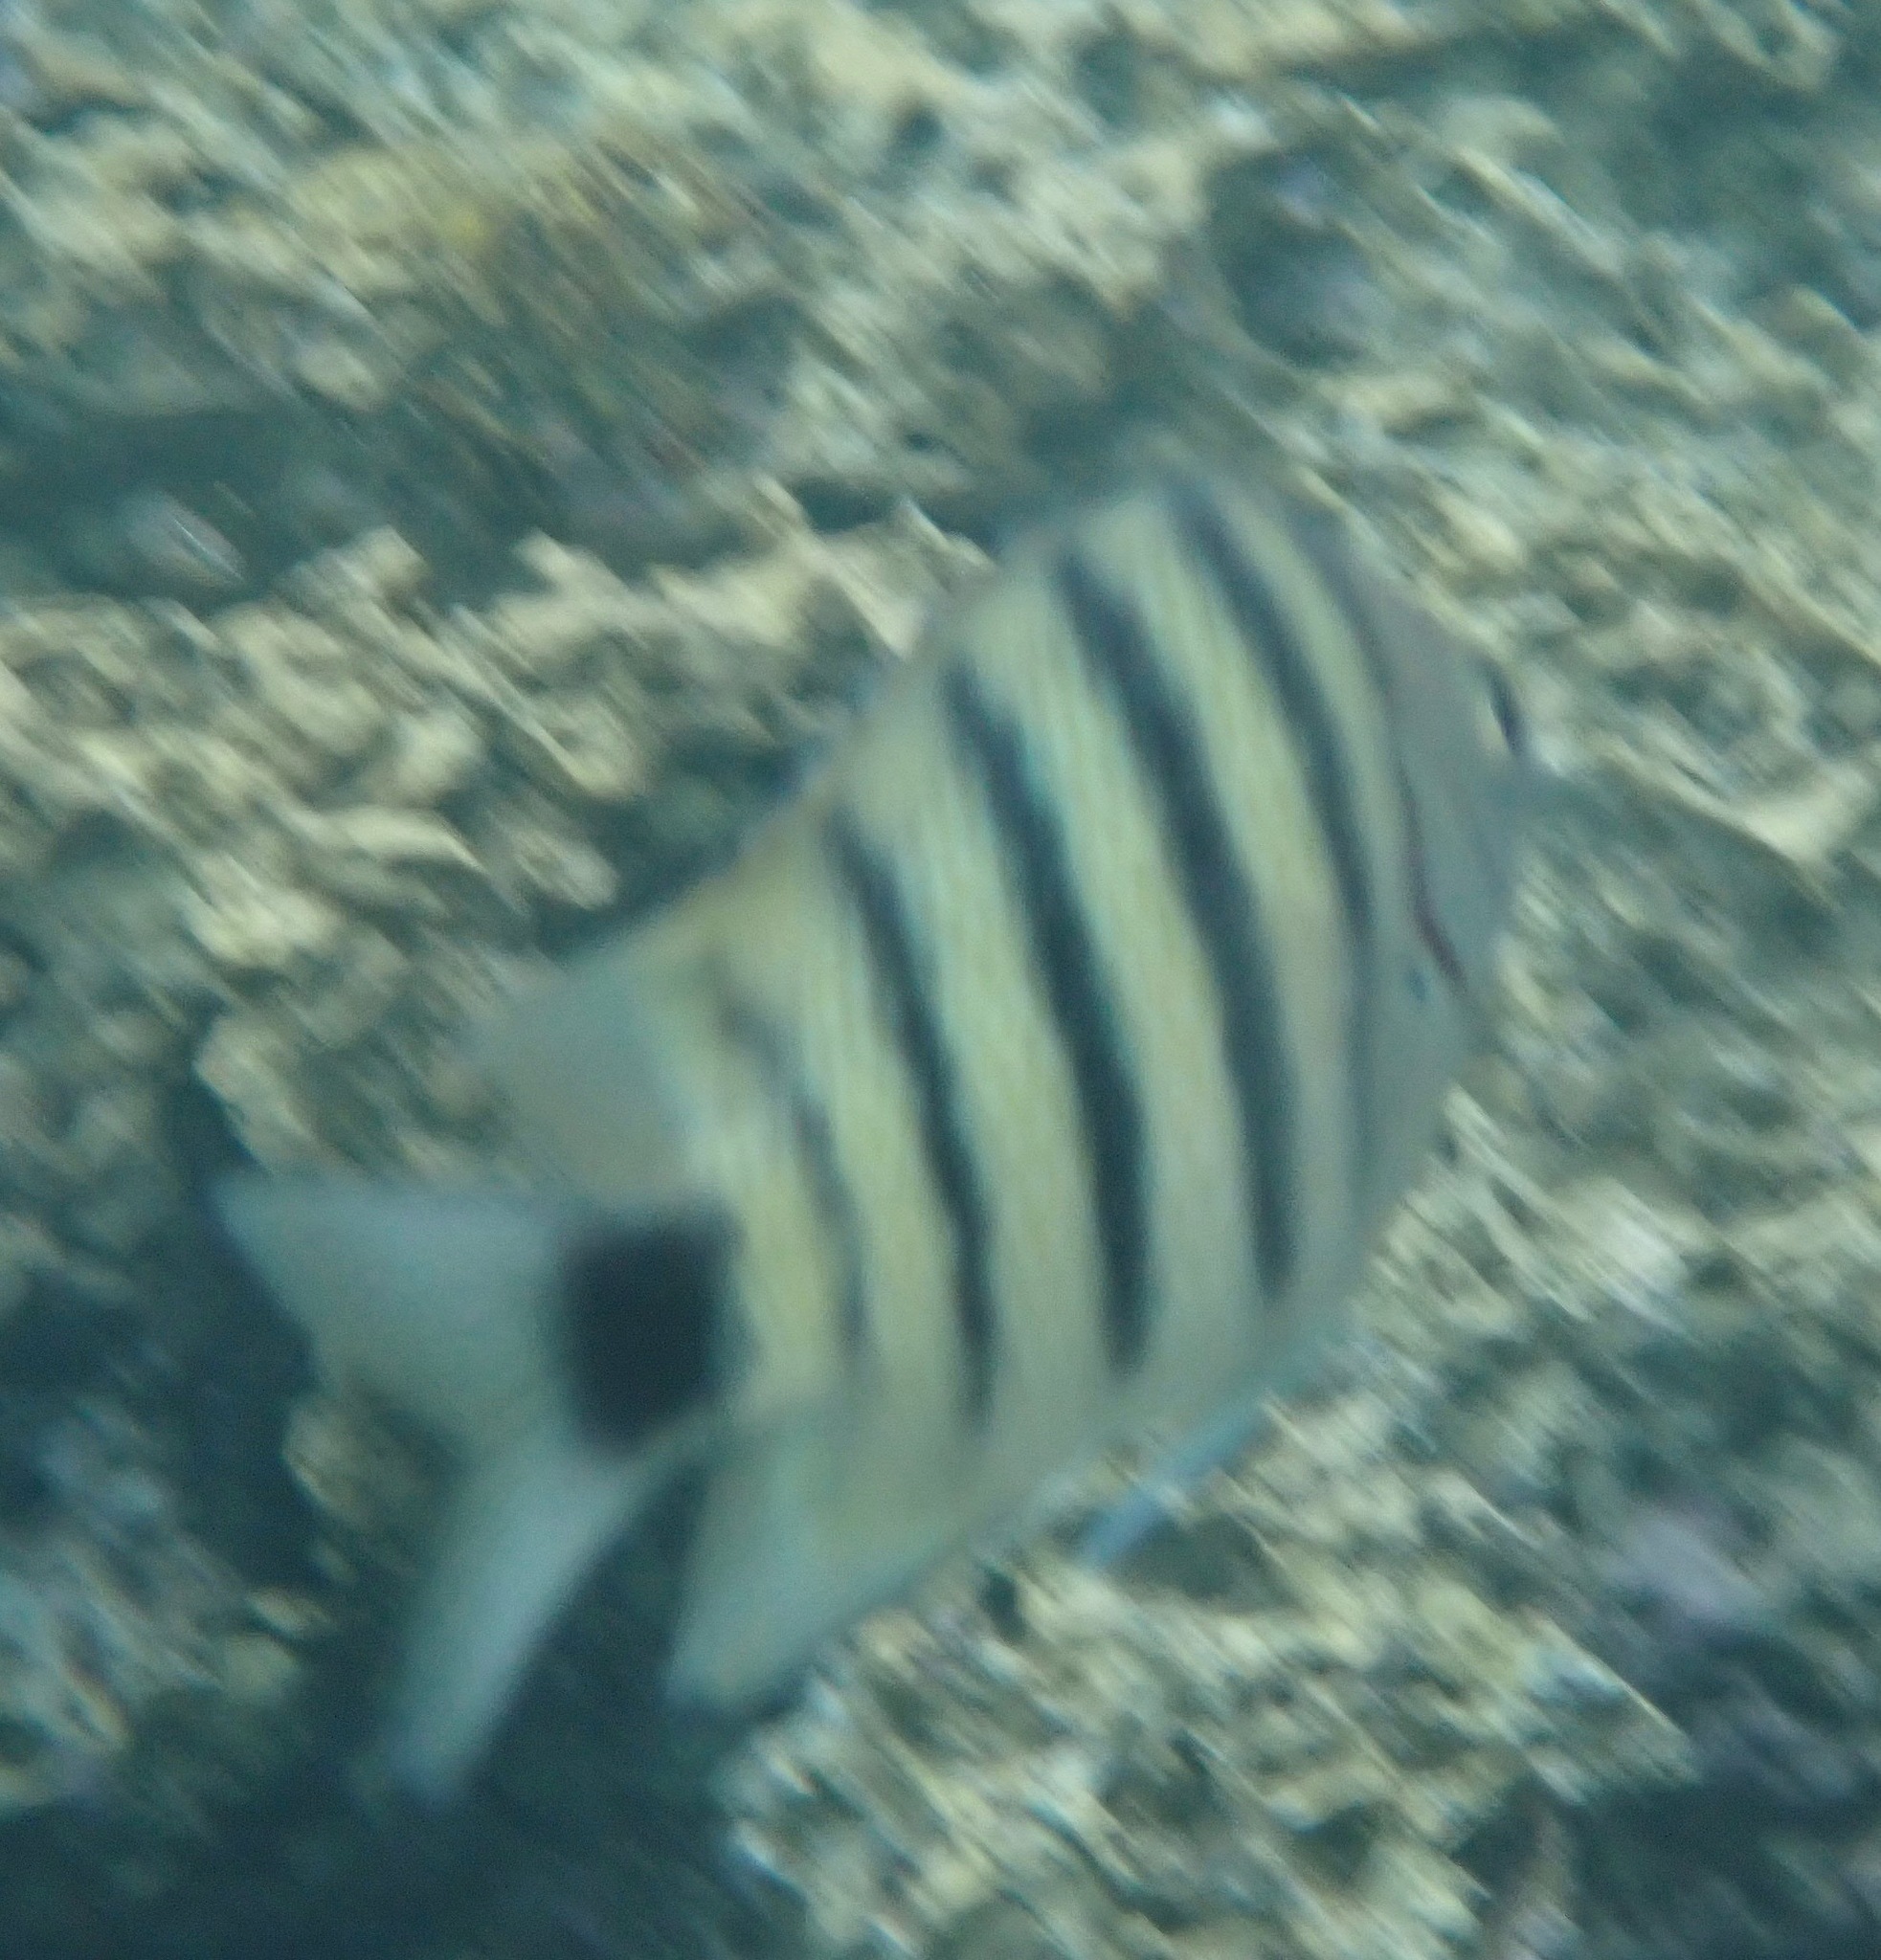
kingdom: Animalia
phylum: Chordata
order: Perciformes
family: Pomacentridae
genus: Abudefduf
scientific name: Abudefduf lorenzi
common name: Black-tail sergeant
